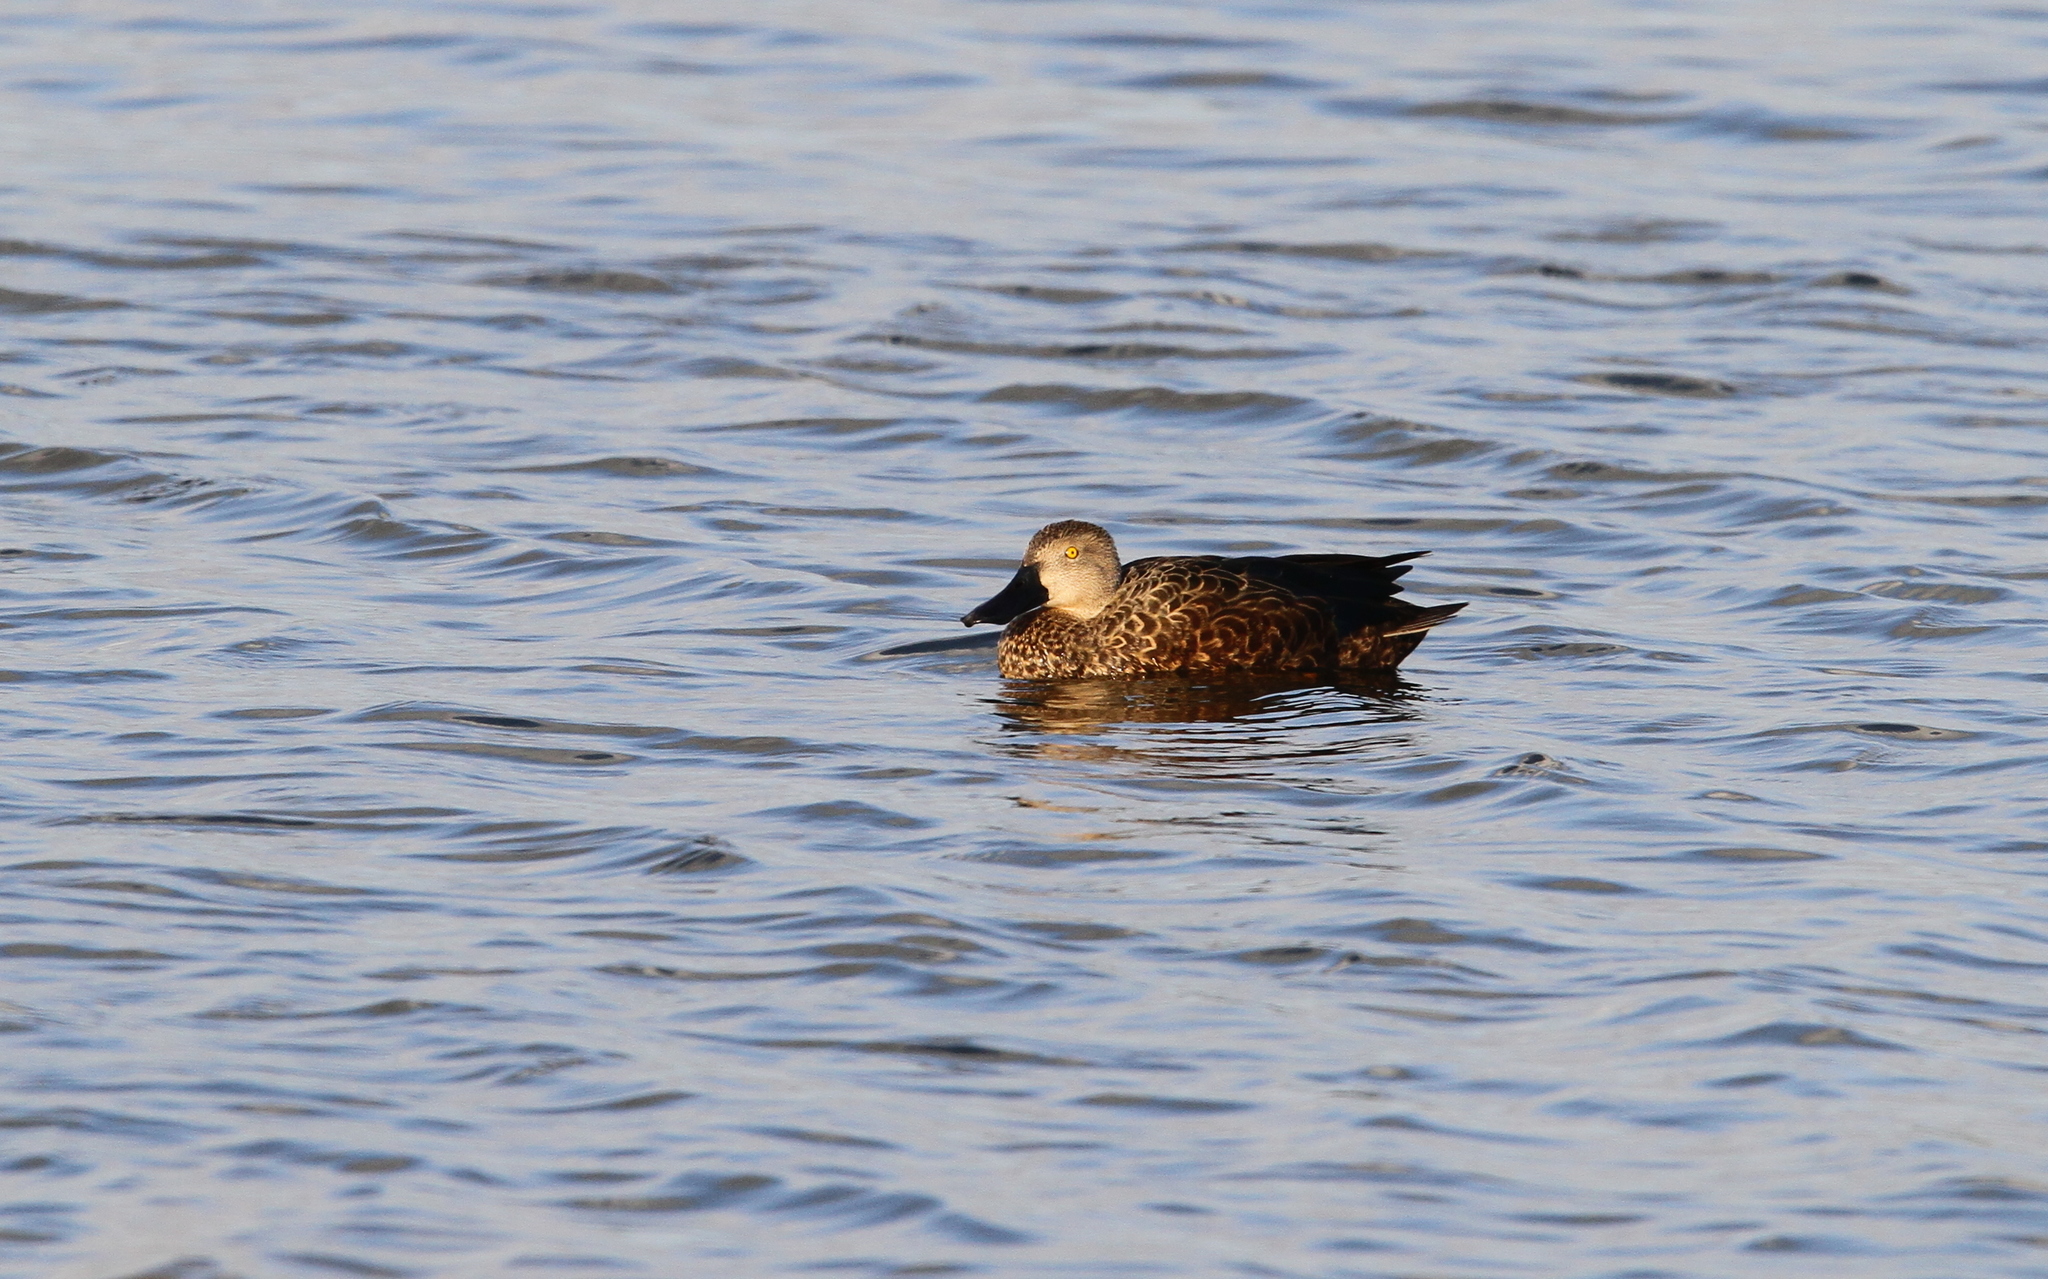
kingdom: Animalia
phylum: Chordata
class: Aves
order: Anseriformes
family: Anatidae
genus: Spatula
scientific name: Spatula smithii
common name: Cape shoveler
